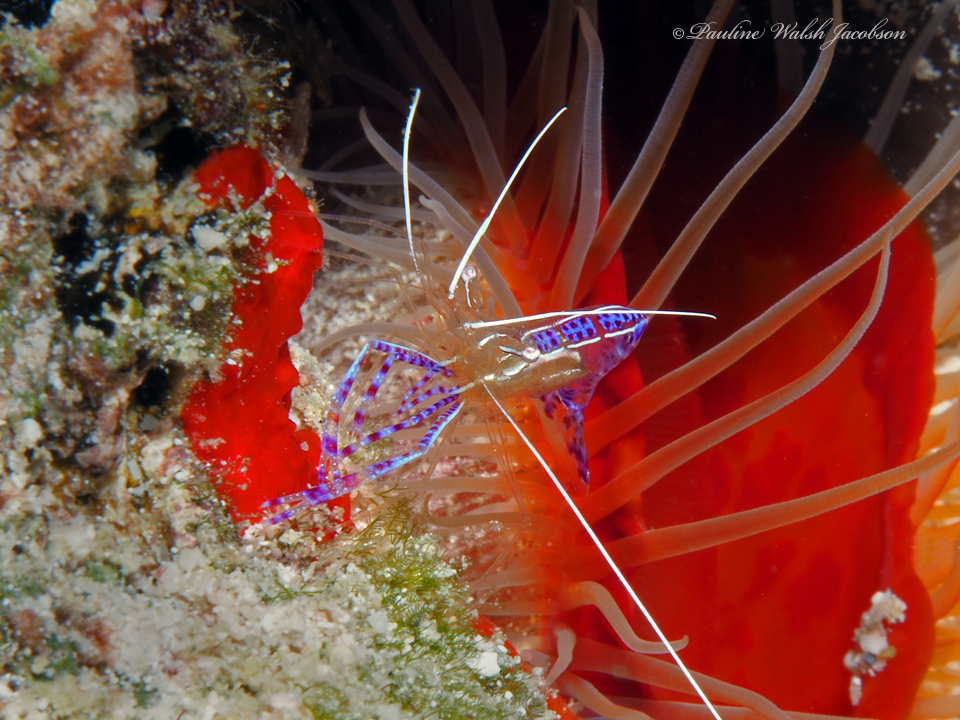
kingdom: Animalia
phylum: Arthropoda
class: Malacostraca
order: Decapoda
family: Palaemonidae
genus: Ancylomenes
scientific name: Ancylomenes pedersoni
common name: Pederson's cleaning shrimp
